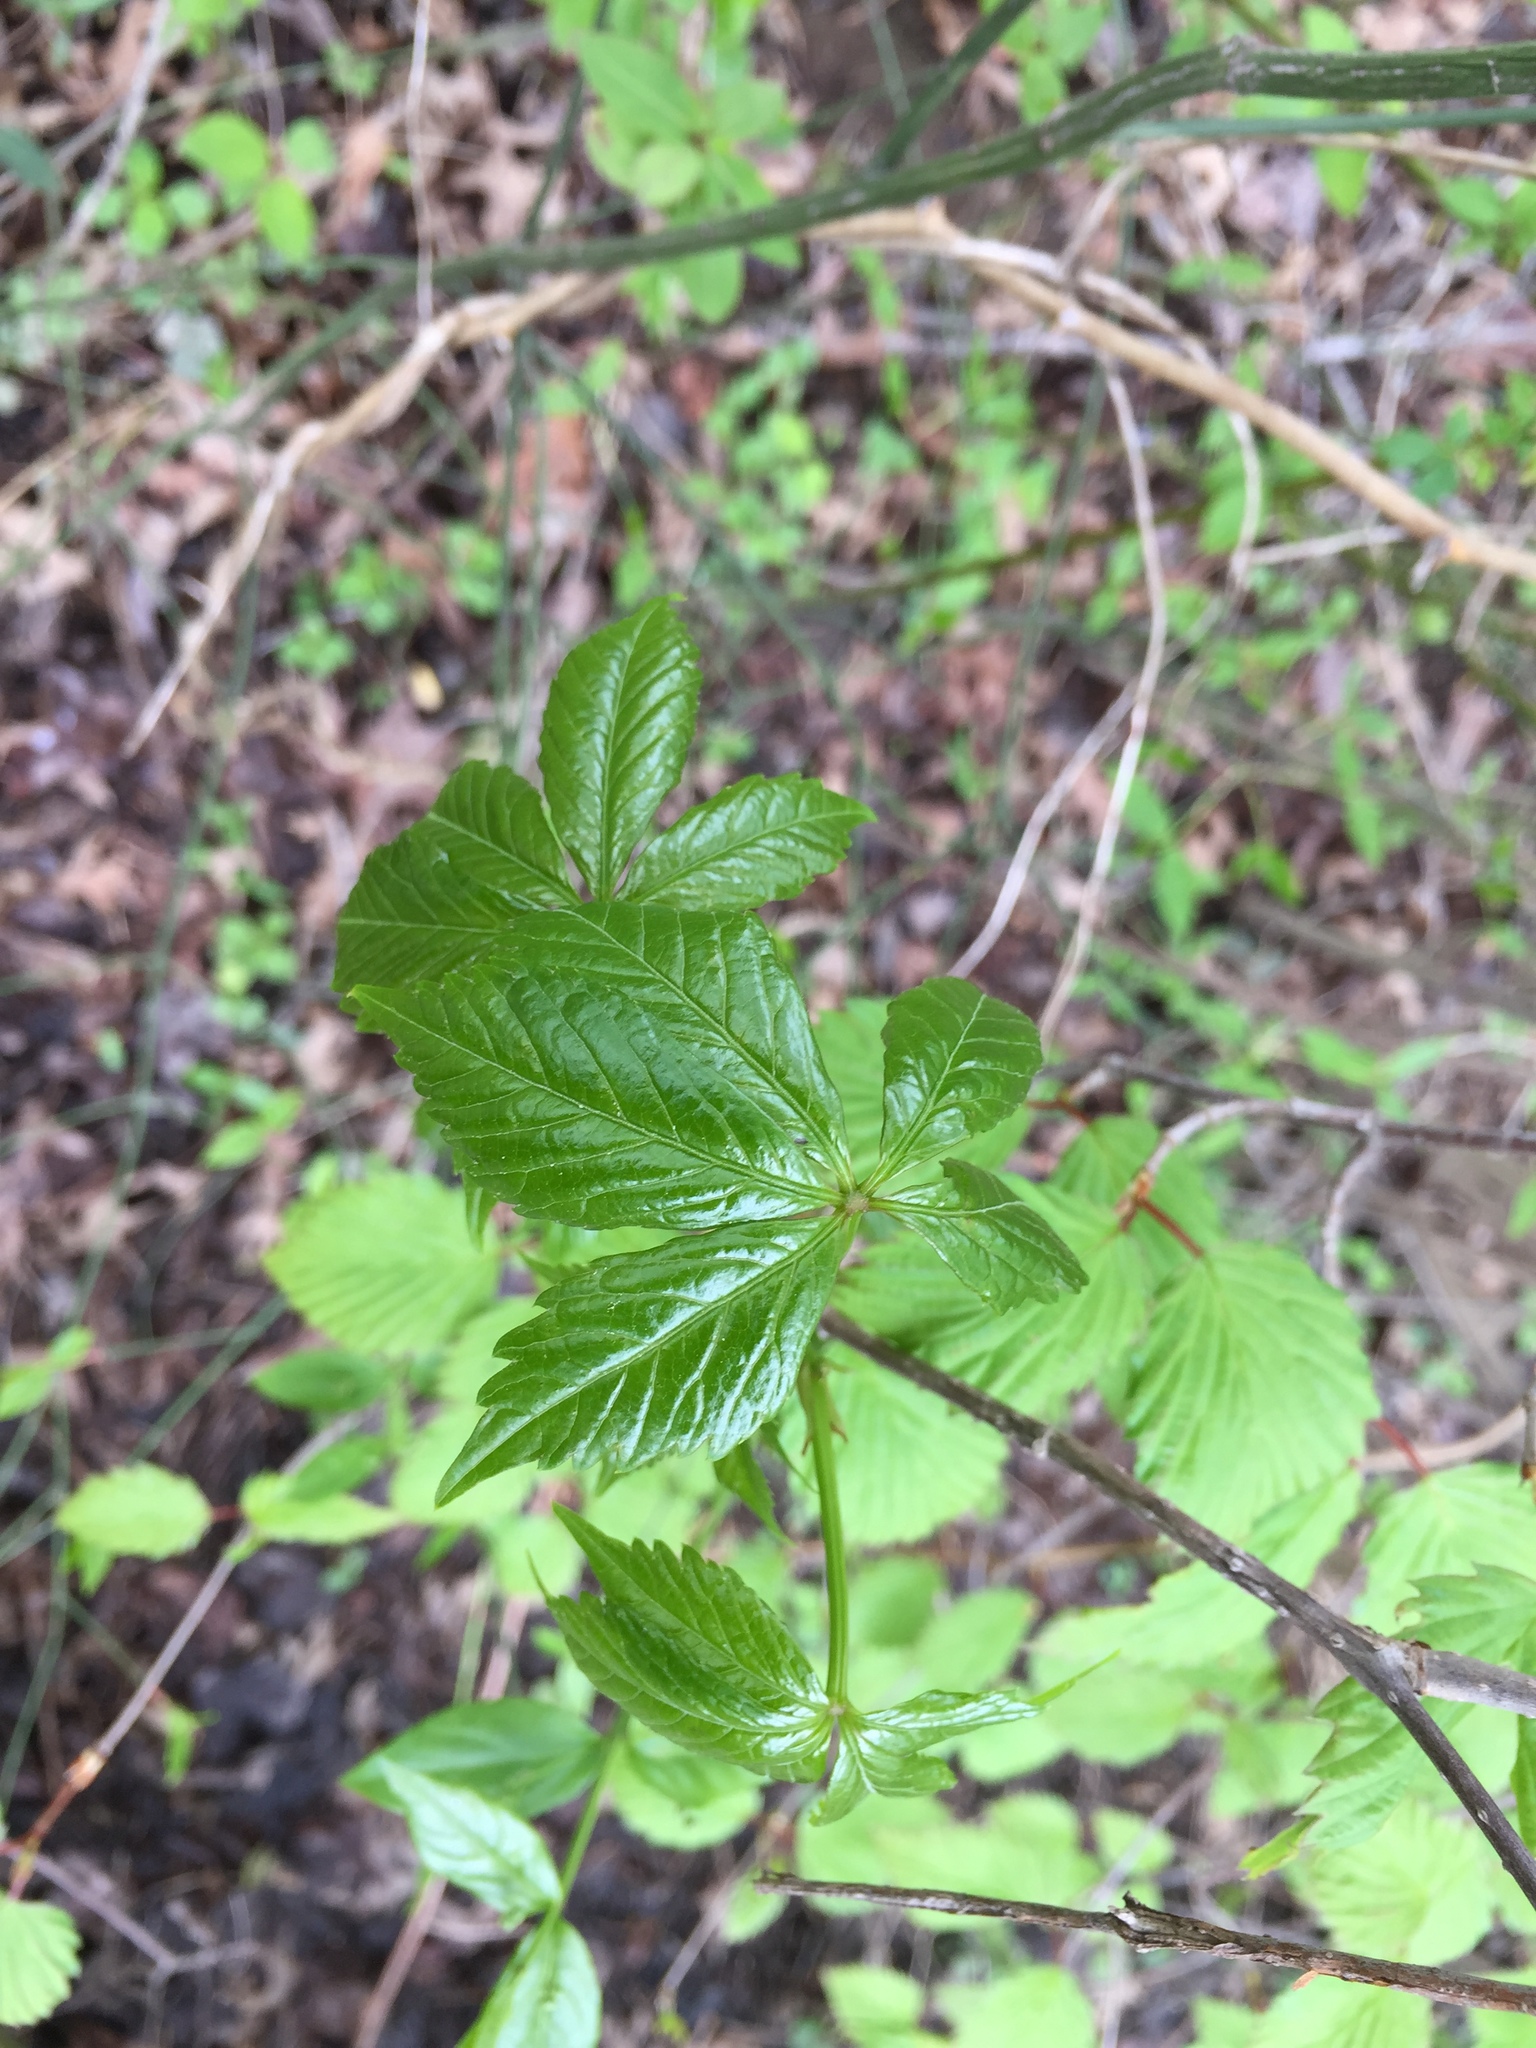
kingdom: Plantae
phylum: Tracheophyta
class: Magnoliopsida
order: Vitales
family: Vitaceae
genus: Parthenocissus
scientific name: Parthenocissus quinquefolia
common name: Virginia-creeper
